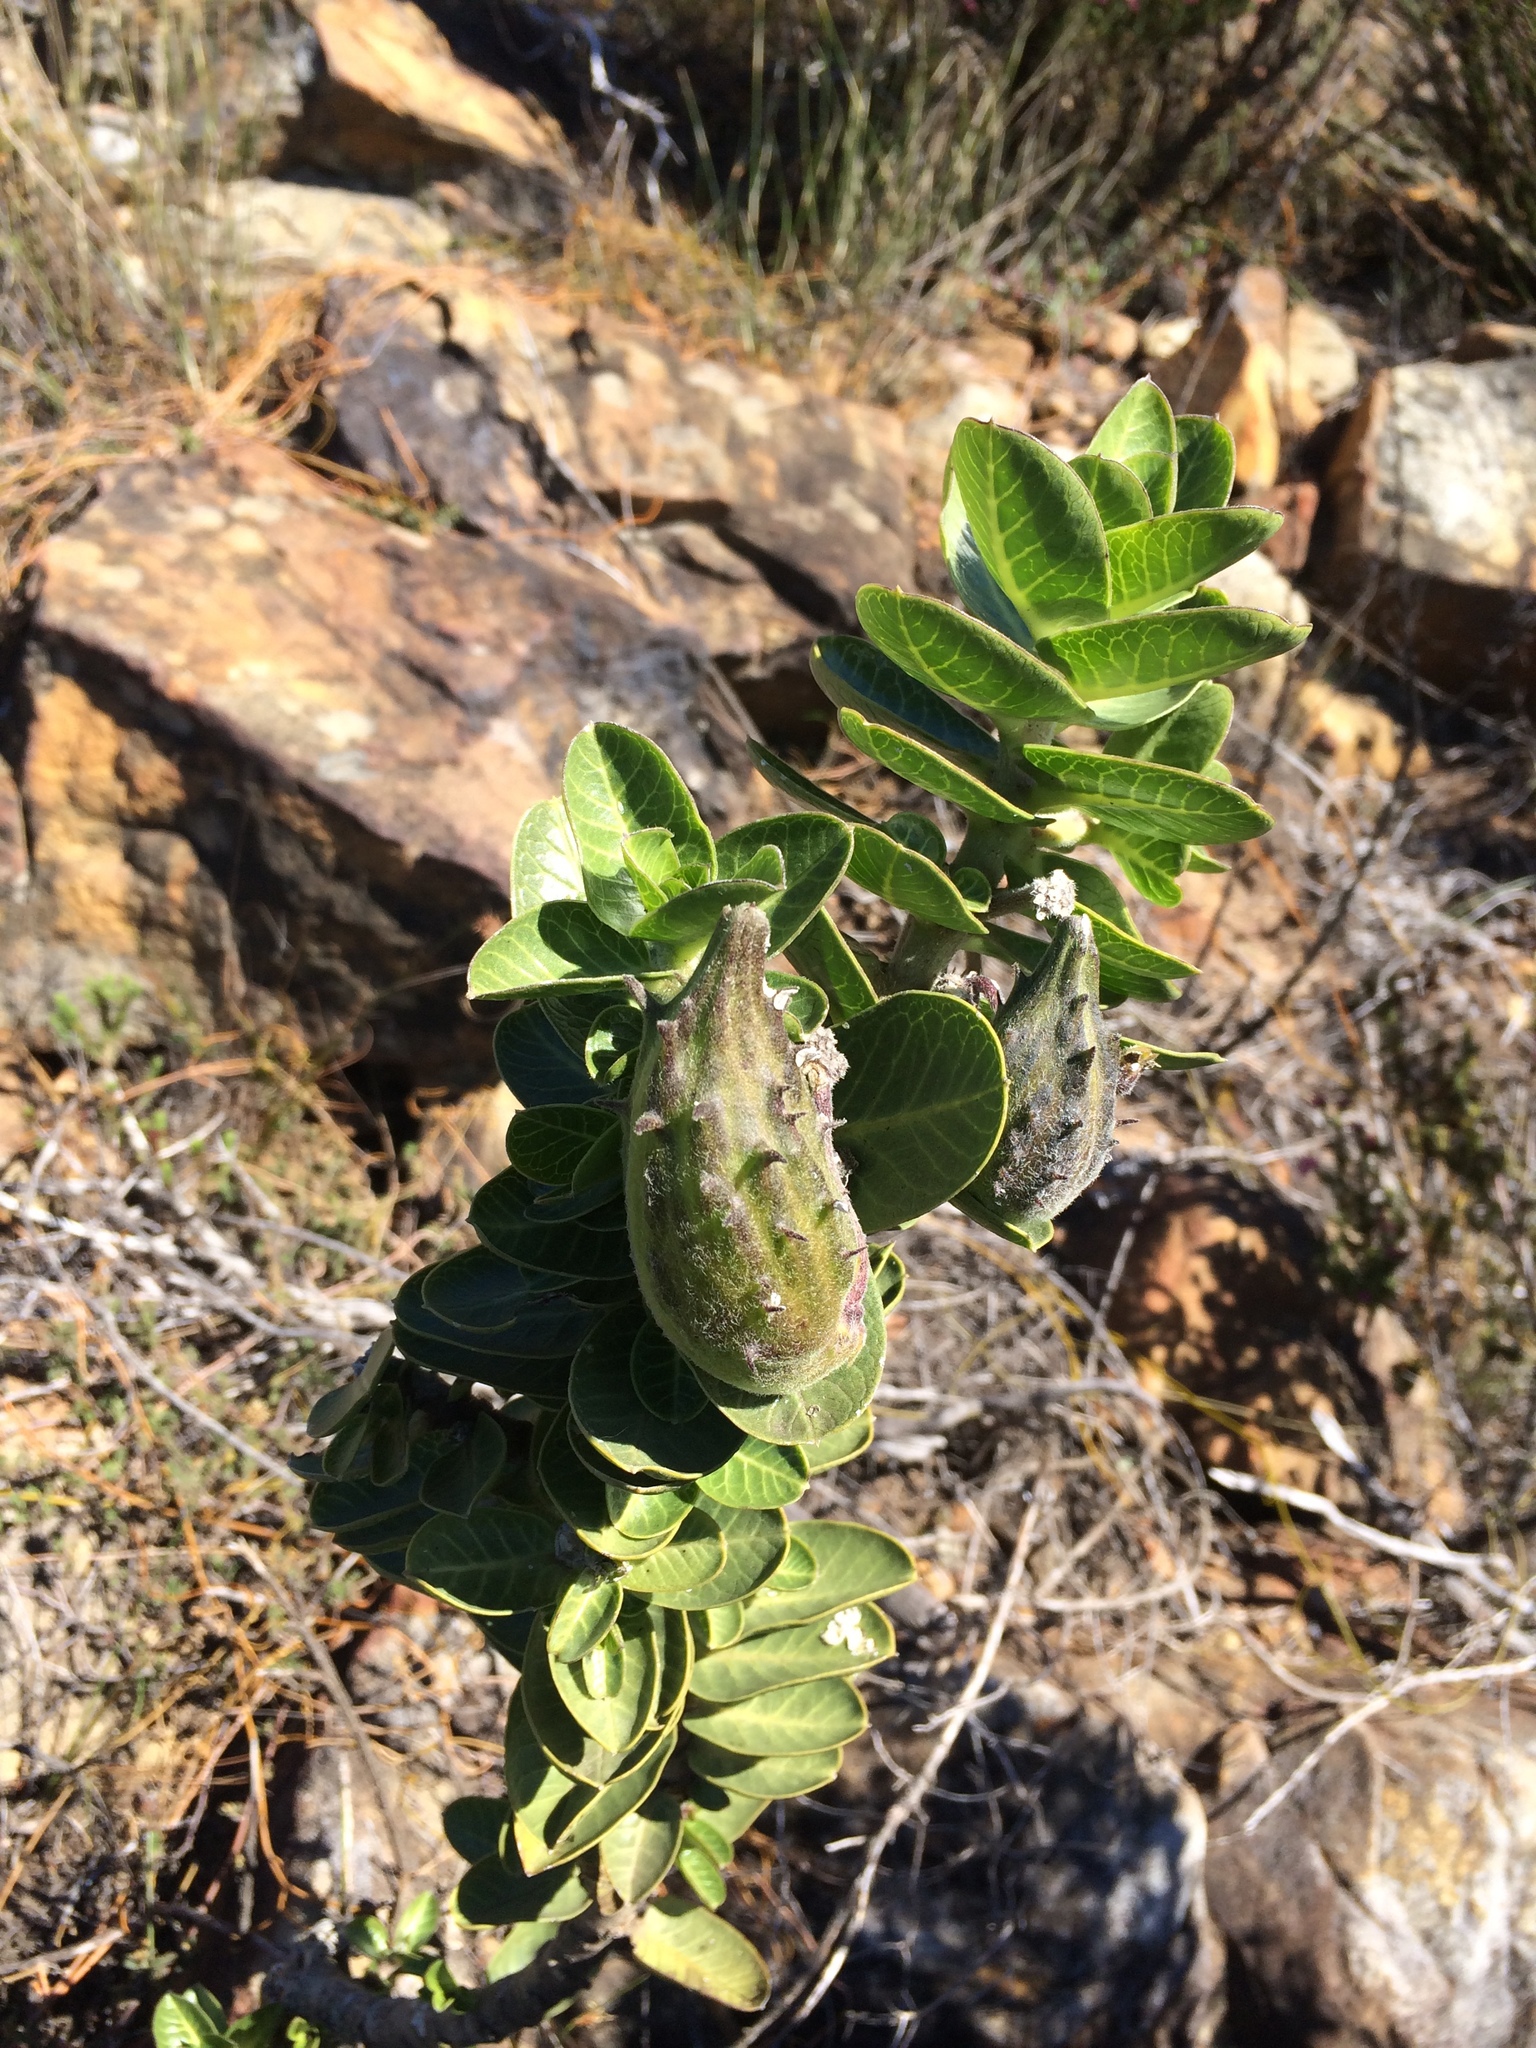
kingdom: Plantae
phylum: Tracheophyta
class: Magnoliopsida
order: Gentianales
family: Apocynaceae
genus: Gomphocarpus
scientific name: Gomphocarpus cancellatus
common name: Wild cotton
